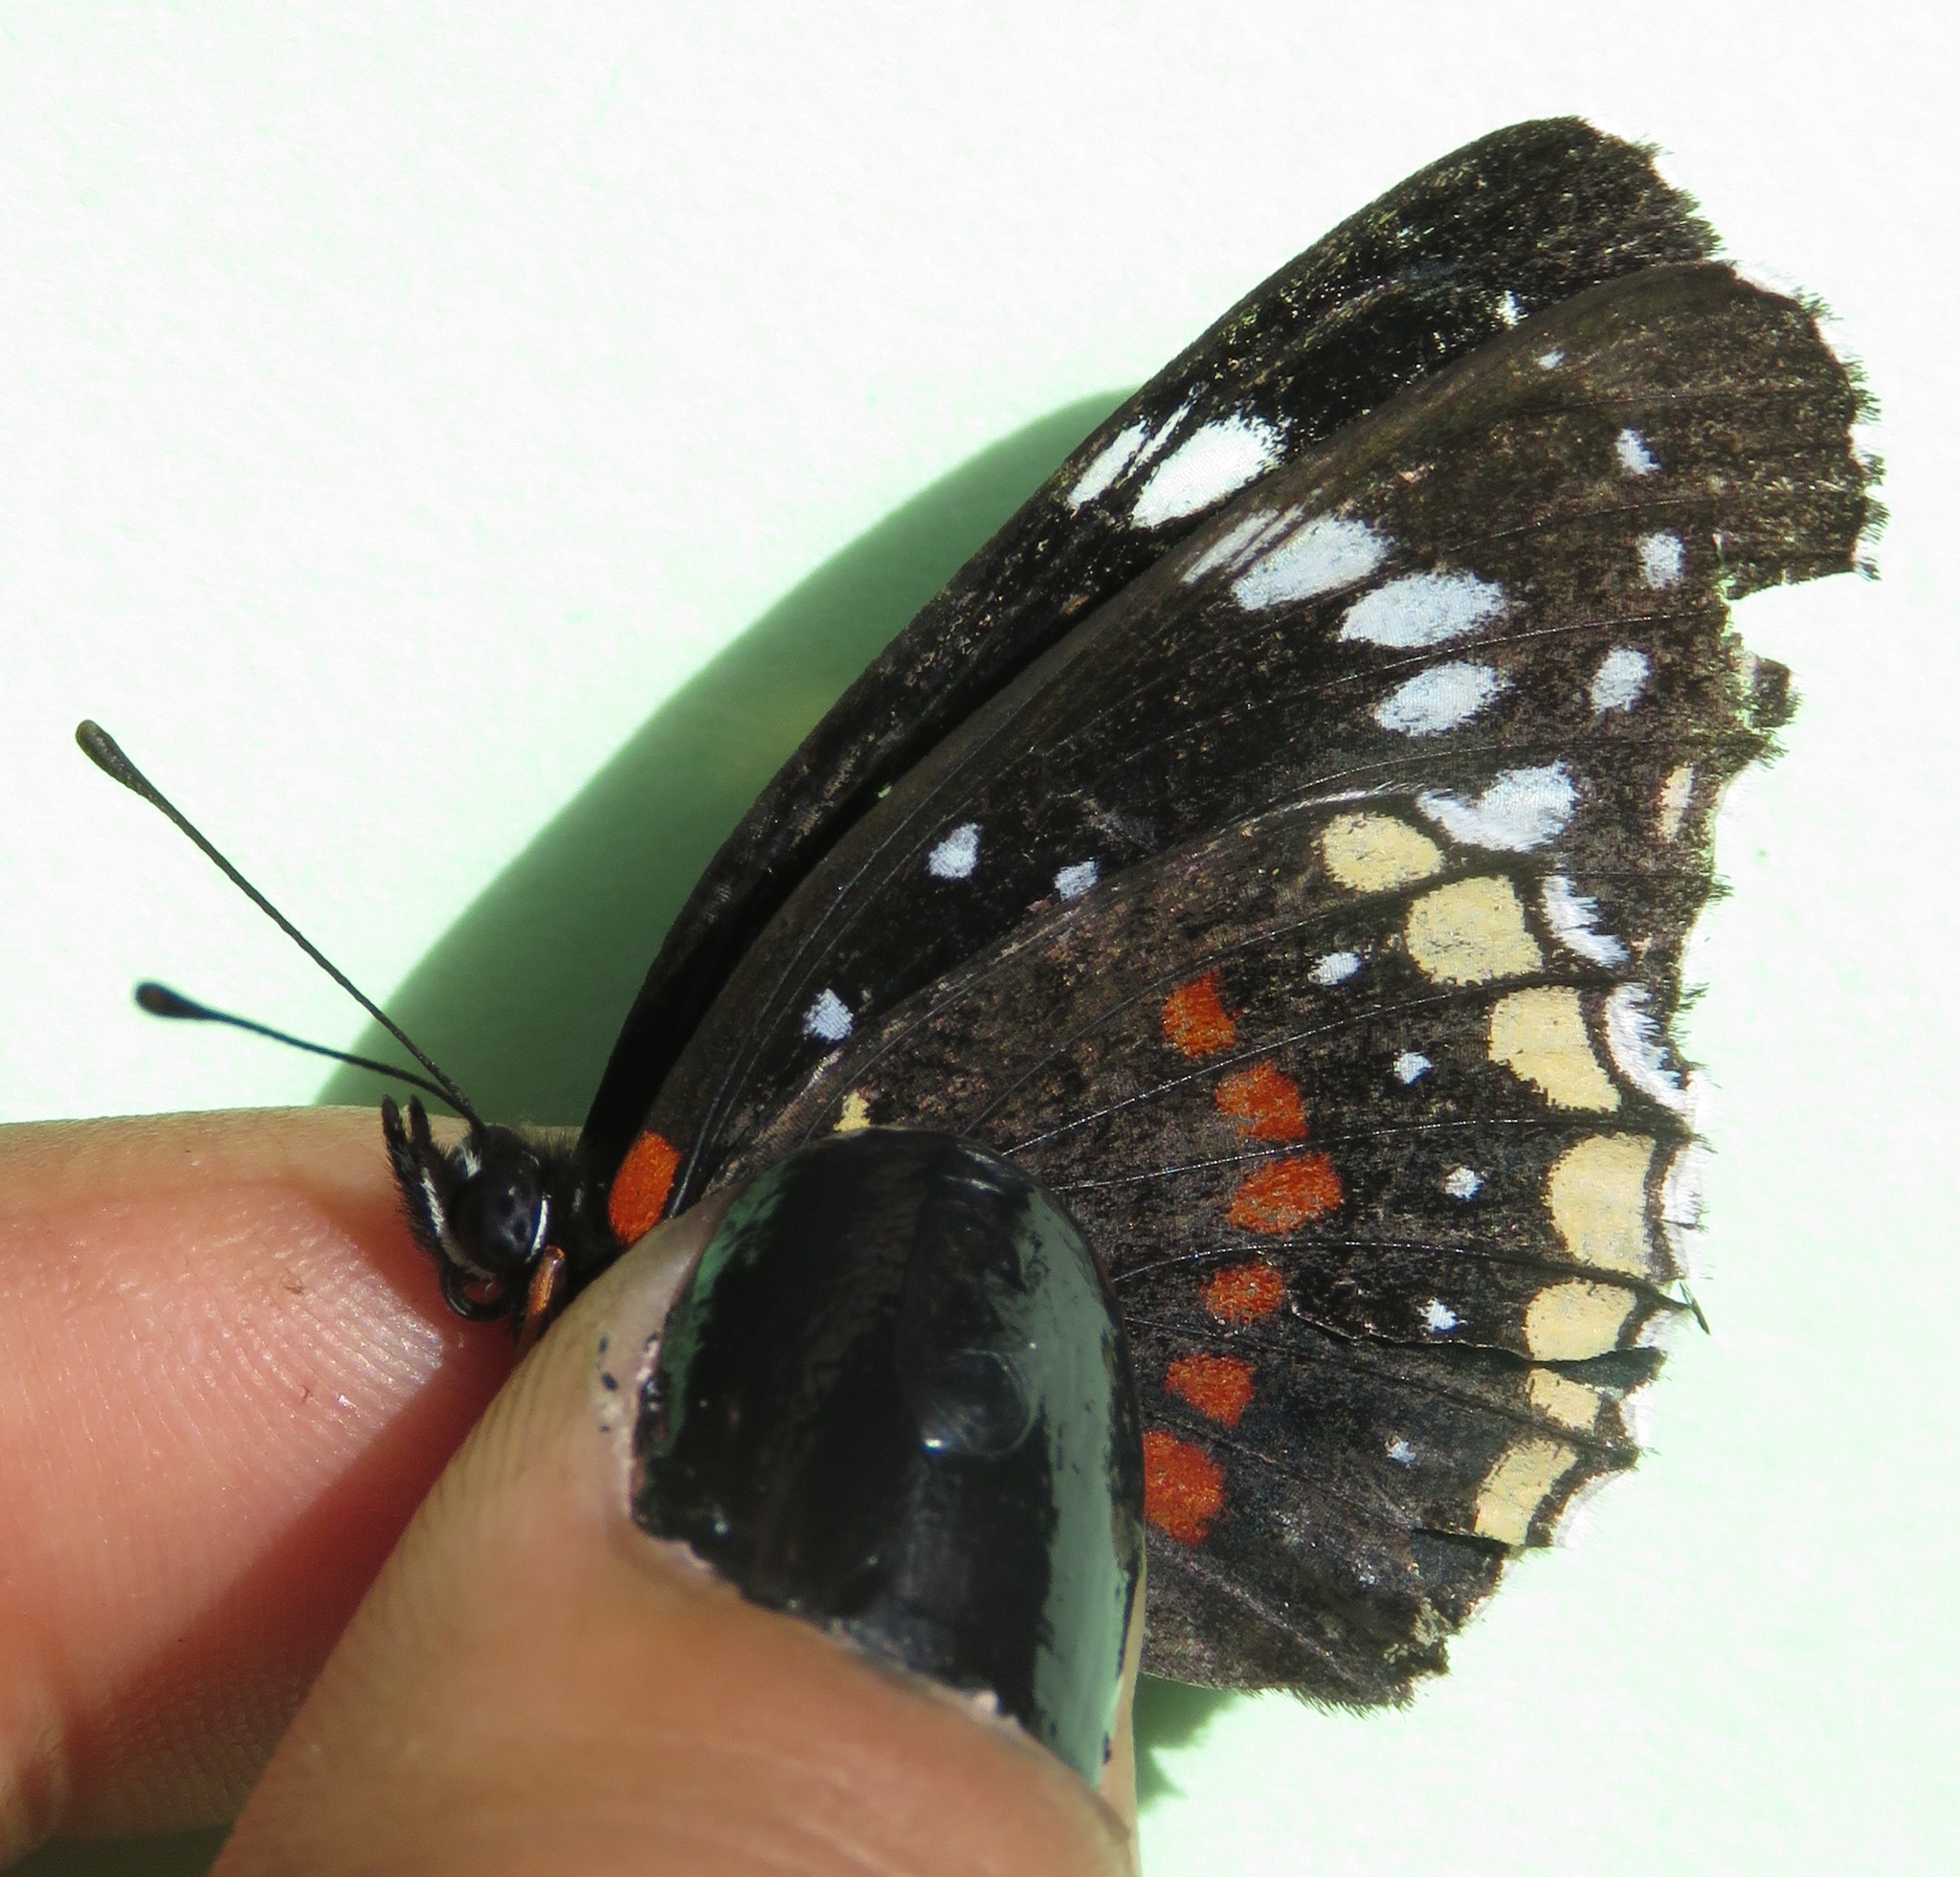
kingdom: Animalia
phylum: Arthropoda
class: Insecta
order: Lepidoptera
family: Nymphalidae
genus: Chlosyne
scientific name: Chlosyne hippodrome
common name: Simple patch
